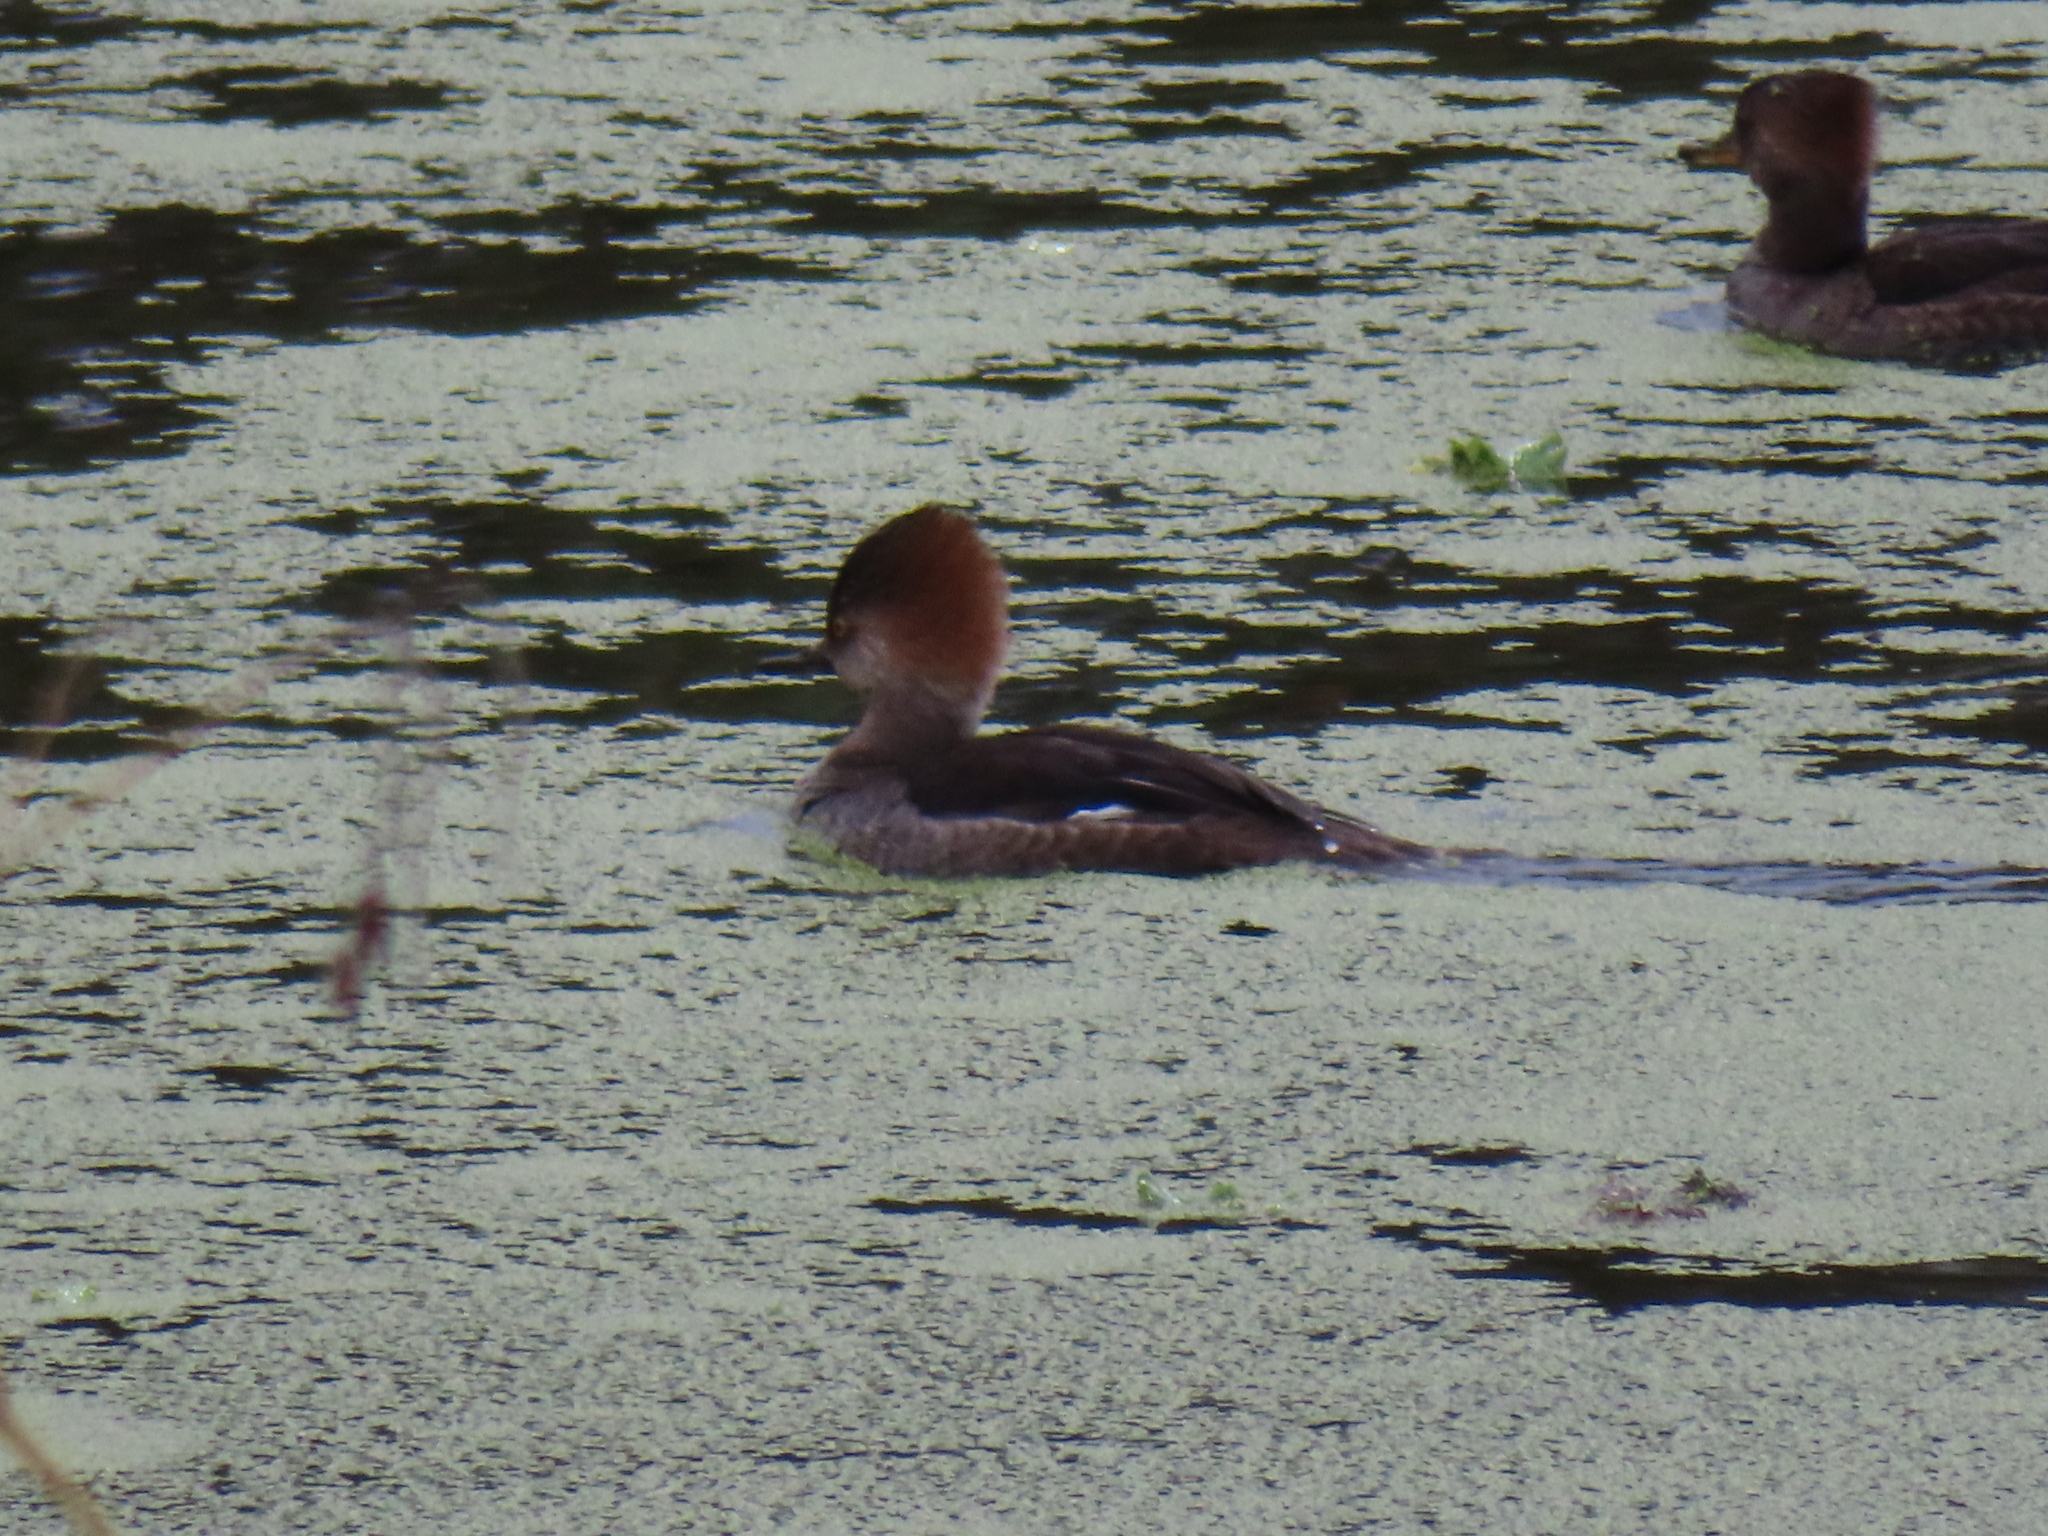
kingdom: Animalia
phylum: Chordata
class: Aves
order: Anseriformes
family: Anatidae
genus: Lophodytes
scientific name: Lophodytes cucullatus
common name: Hooded merganser
